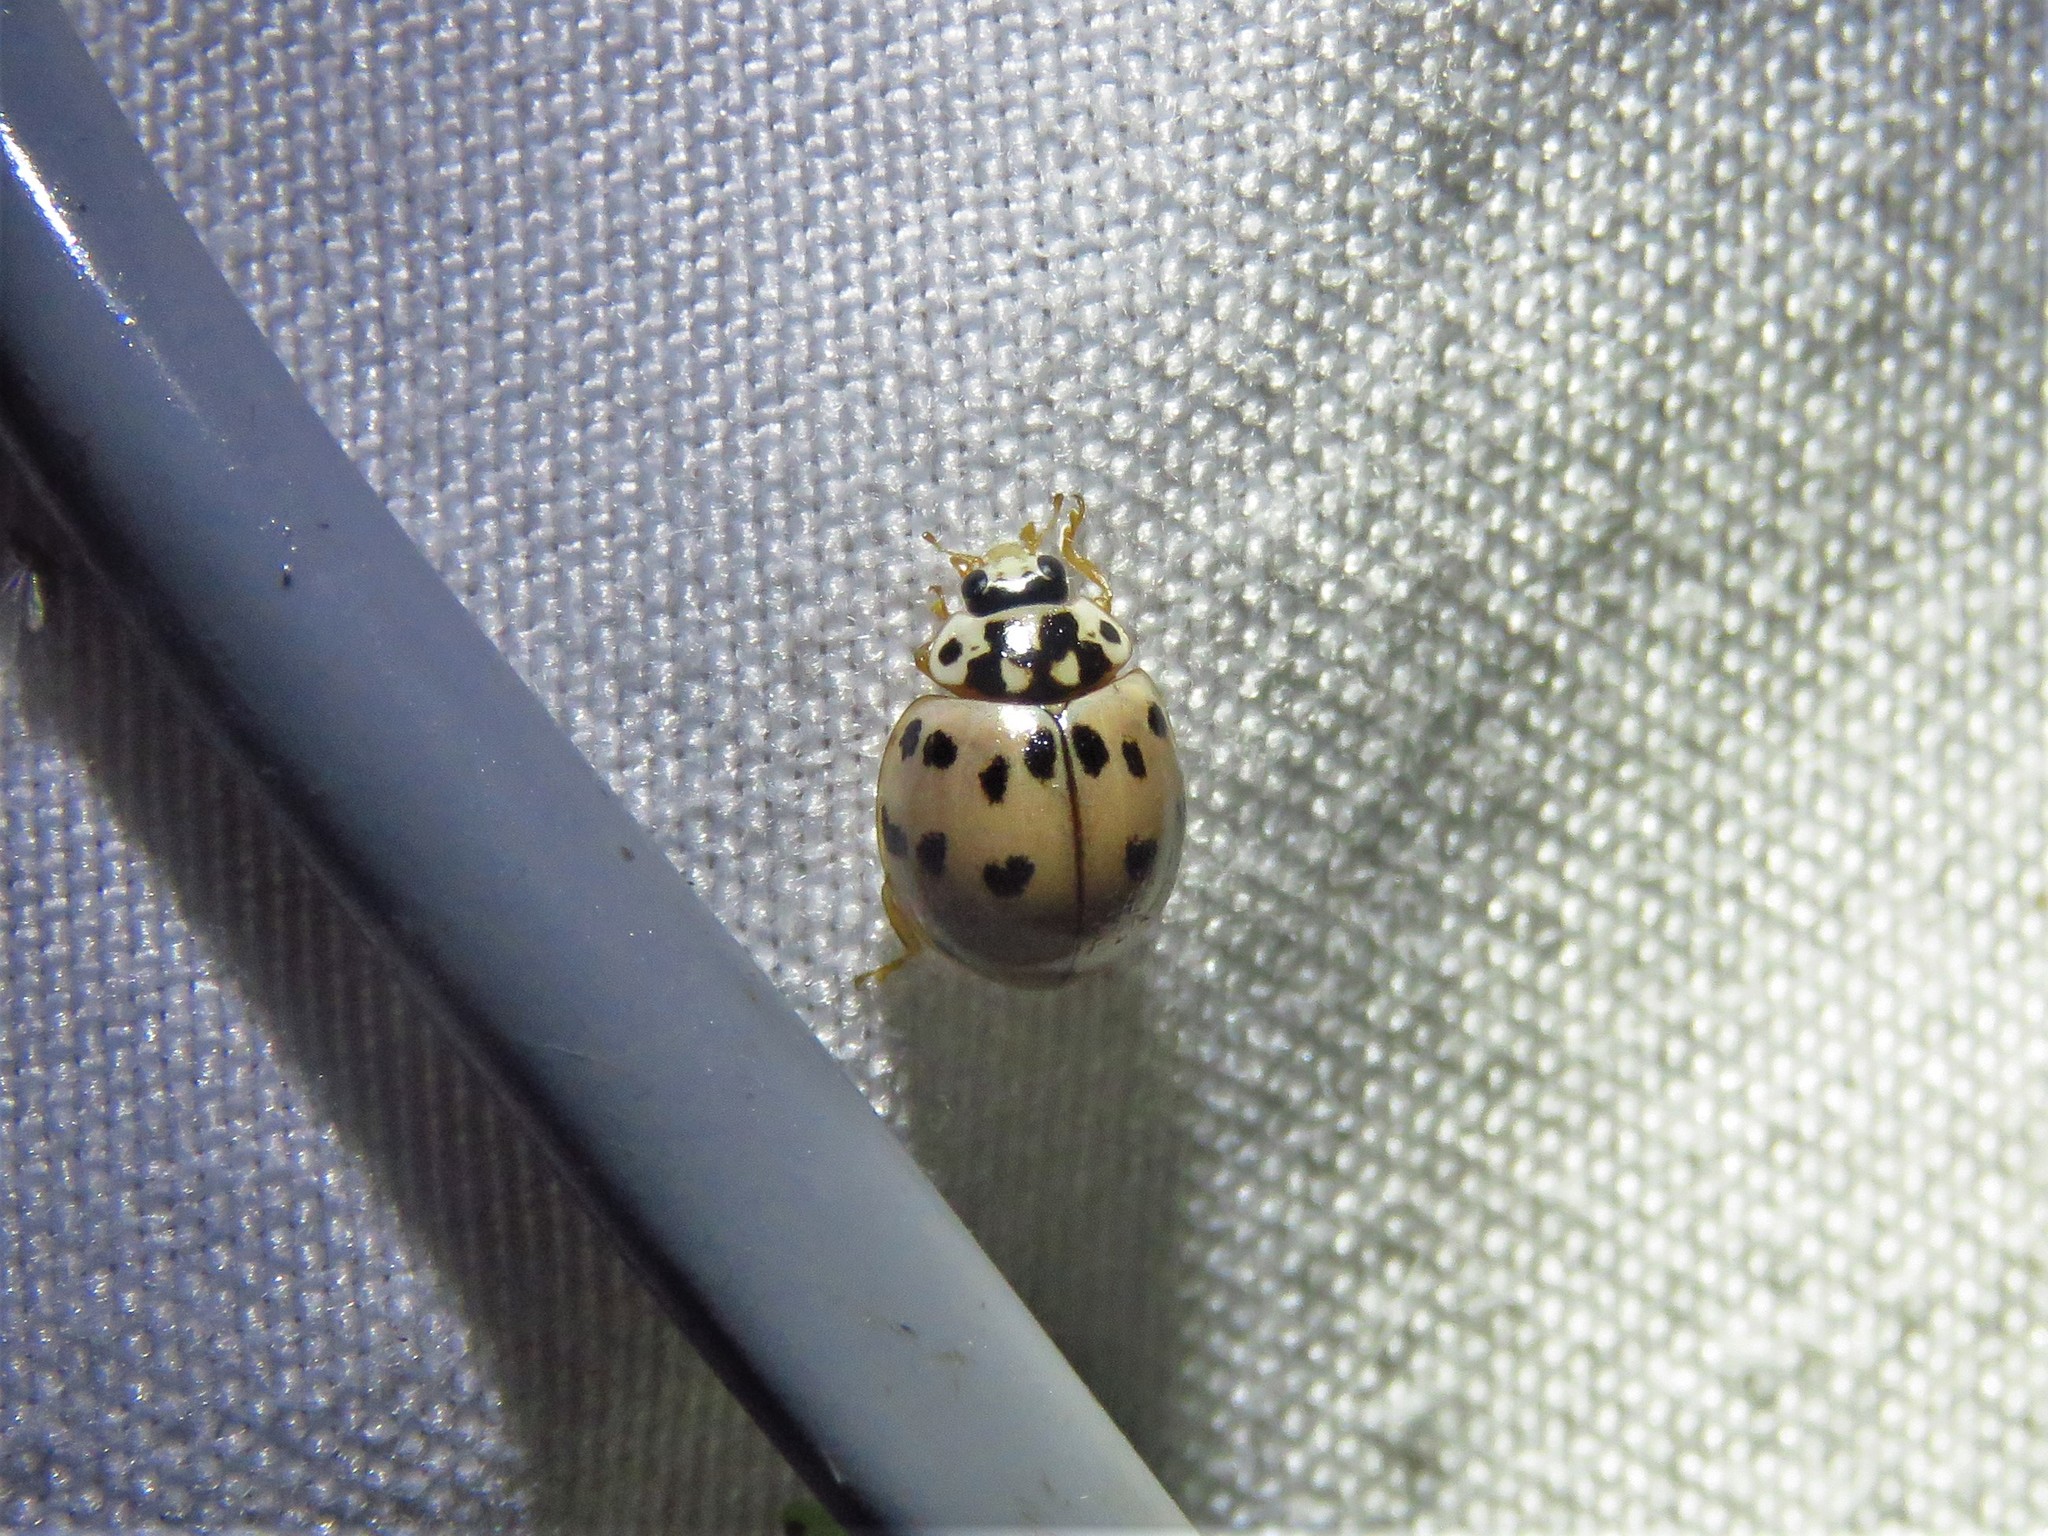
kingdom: Animalia
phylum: Arthropoda
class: Insecta
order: Coleoptera
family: Coccinellidae
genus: Olla
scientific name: Olla v-nigrum
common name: Ashy gray lady beetle
